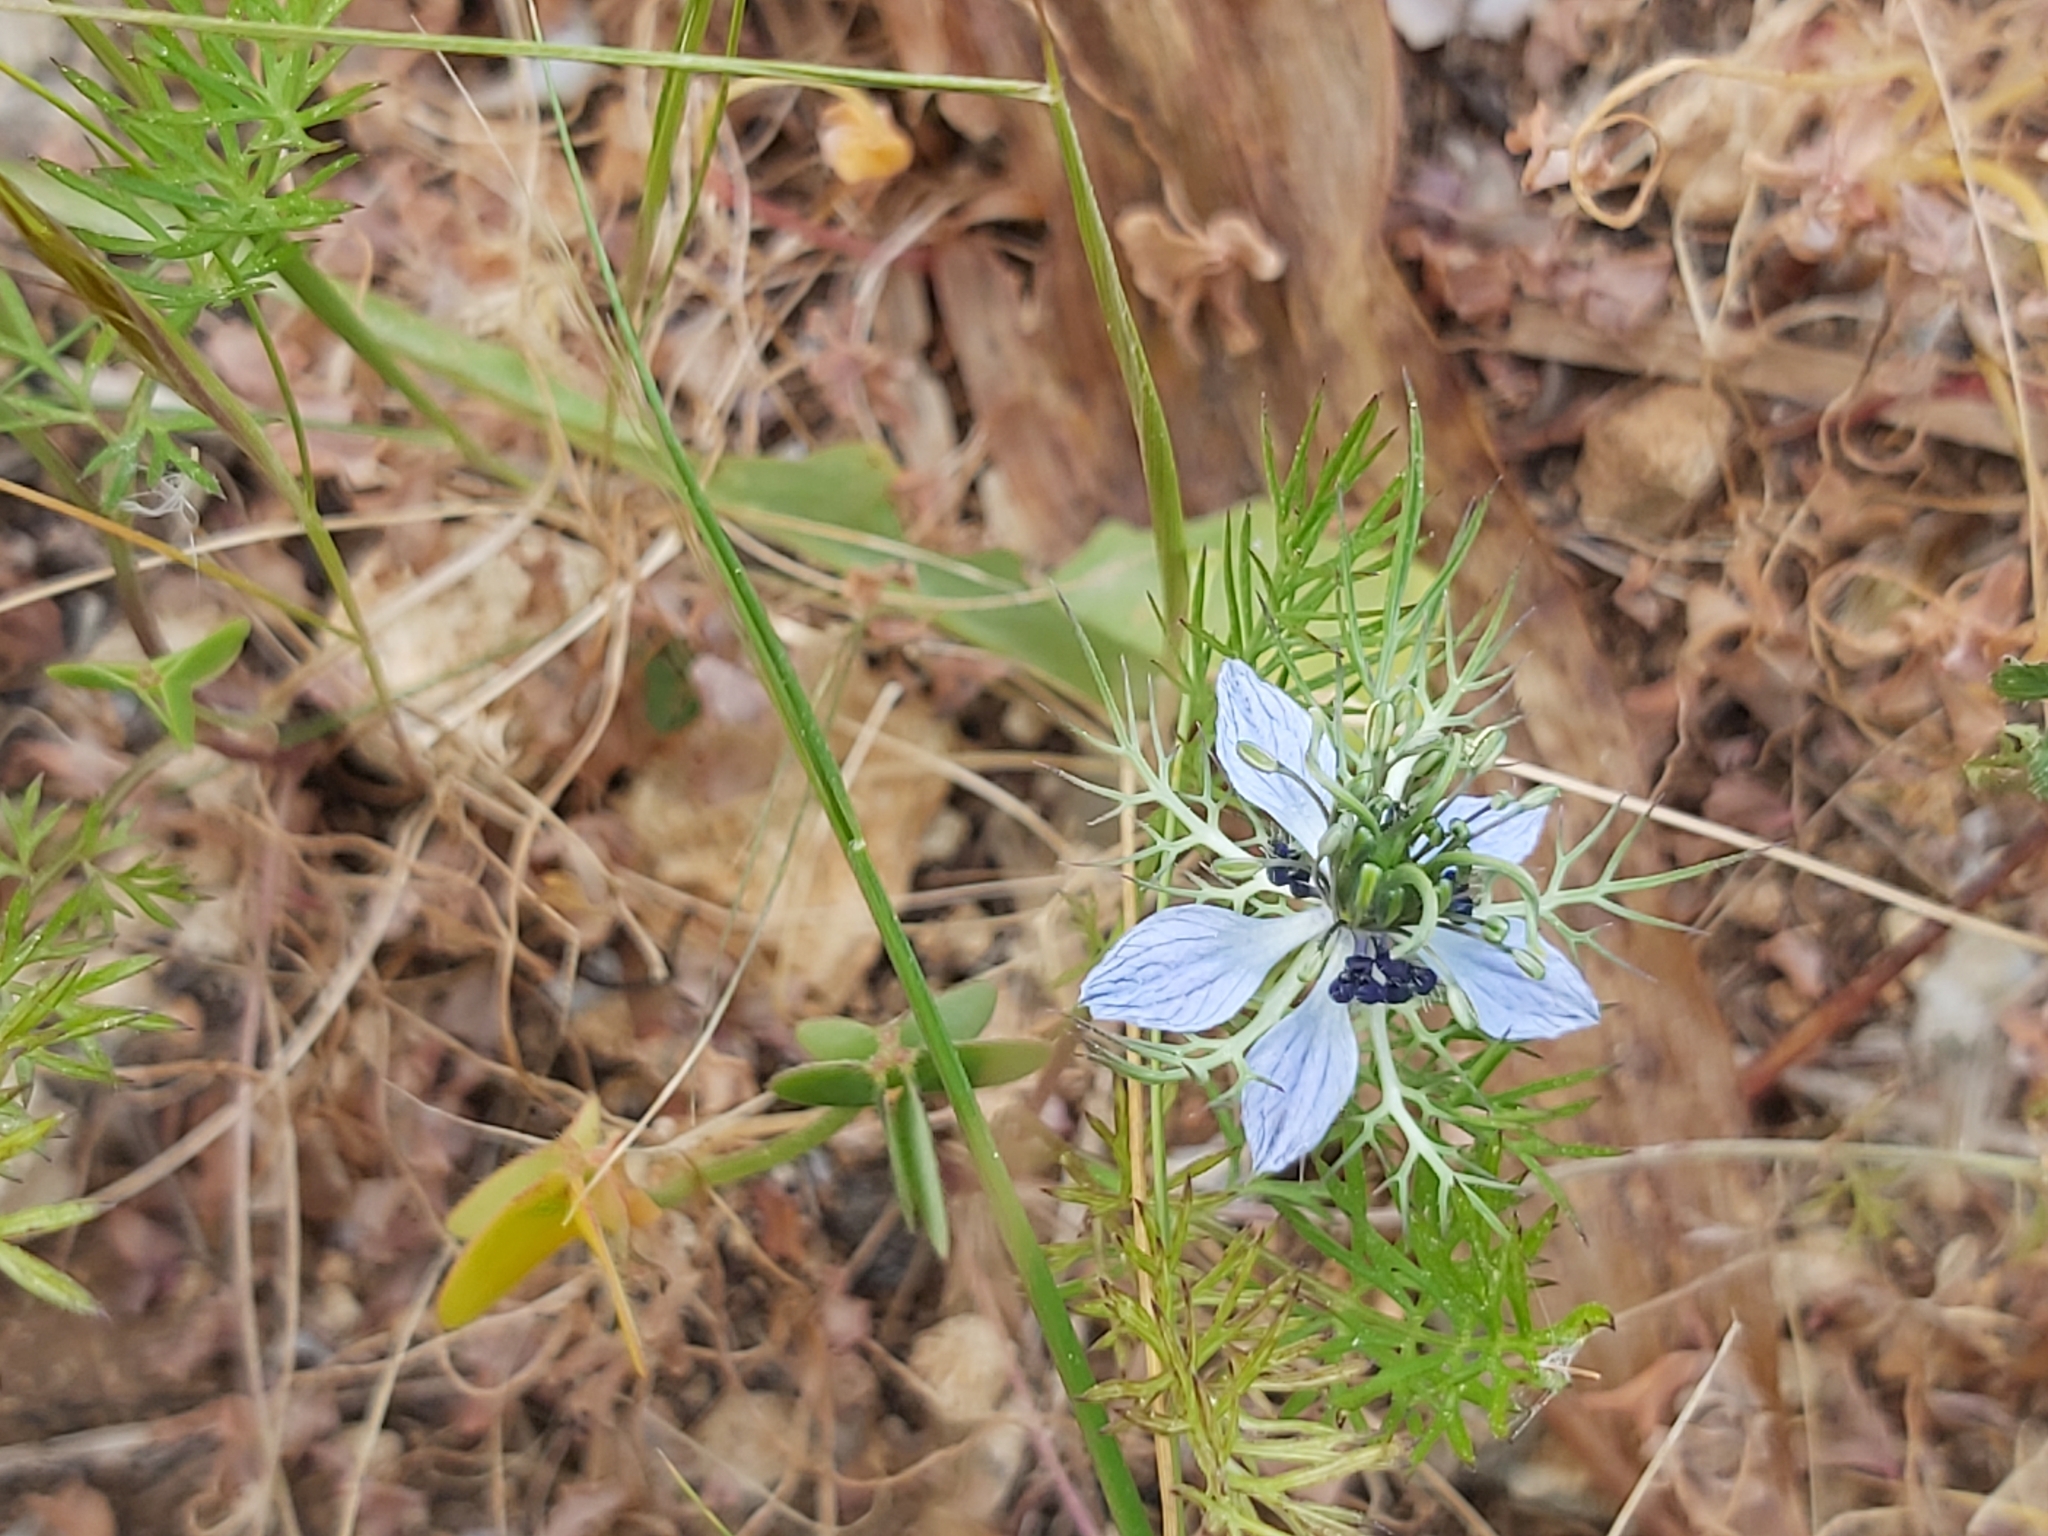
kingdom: Plantae
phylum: Tracheophyta
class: Magnoliopsida
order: Ranunculales
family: Ranunculaceae
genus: Nigella
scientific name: Nigella damascena
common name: Love-in-a-mist
